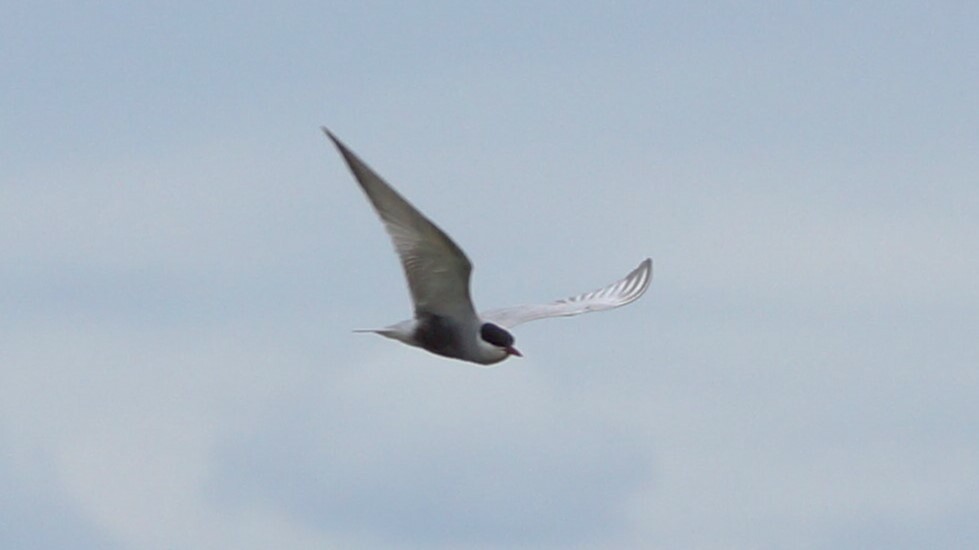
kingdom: Animalia
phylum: Chordata
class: Aves
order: Charadriiformes
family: Laridae
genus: Chlidonias
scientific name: Chlidonias hybrida
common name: Whiskered tern
